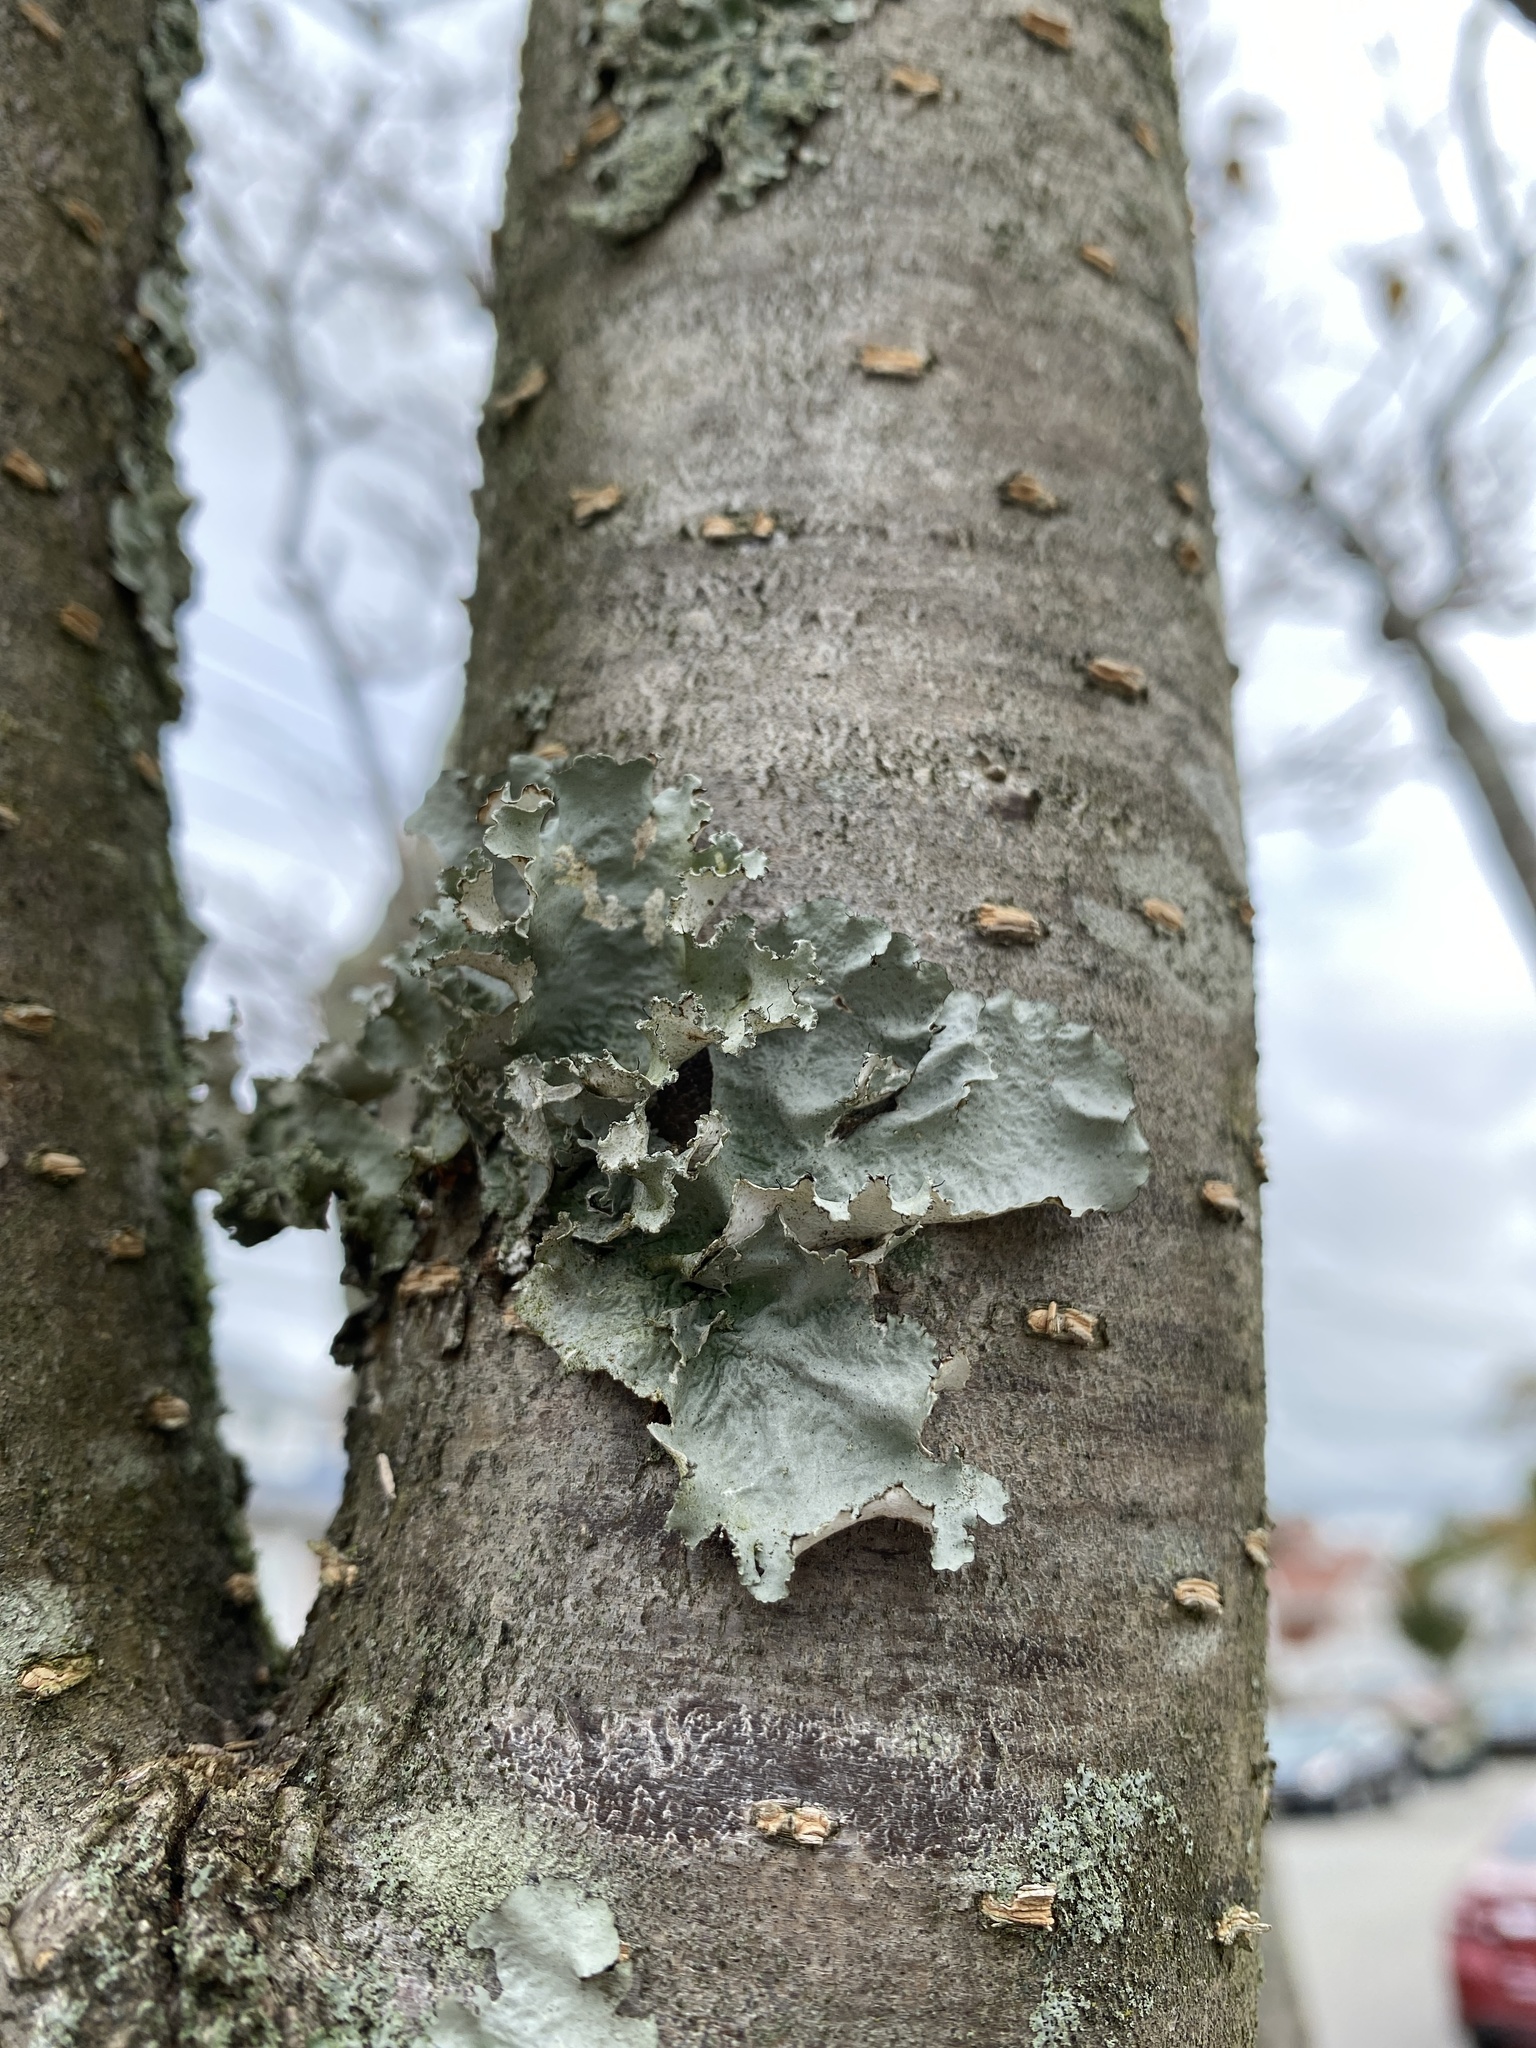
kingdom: Fungi
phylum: Ascomycota
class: Lecanoromycetes
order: Lecanorales
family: Parmeliaceae
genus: Parmotrema
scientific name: Parmotrema hypotropum
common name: Powdered ruffle lichen
